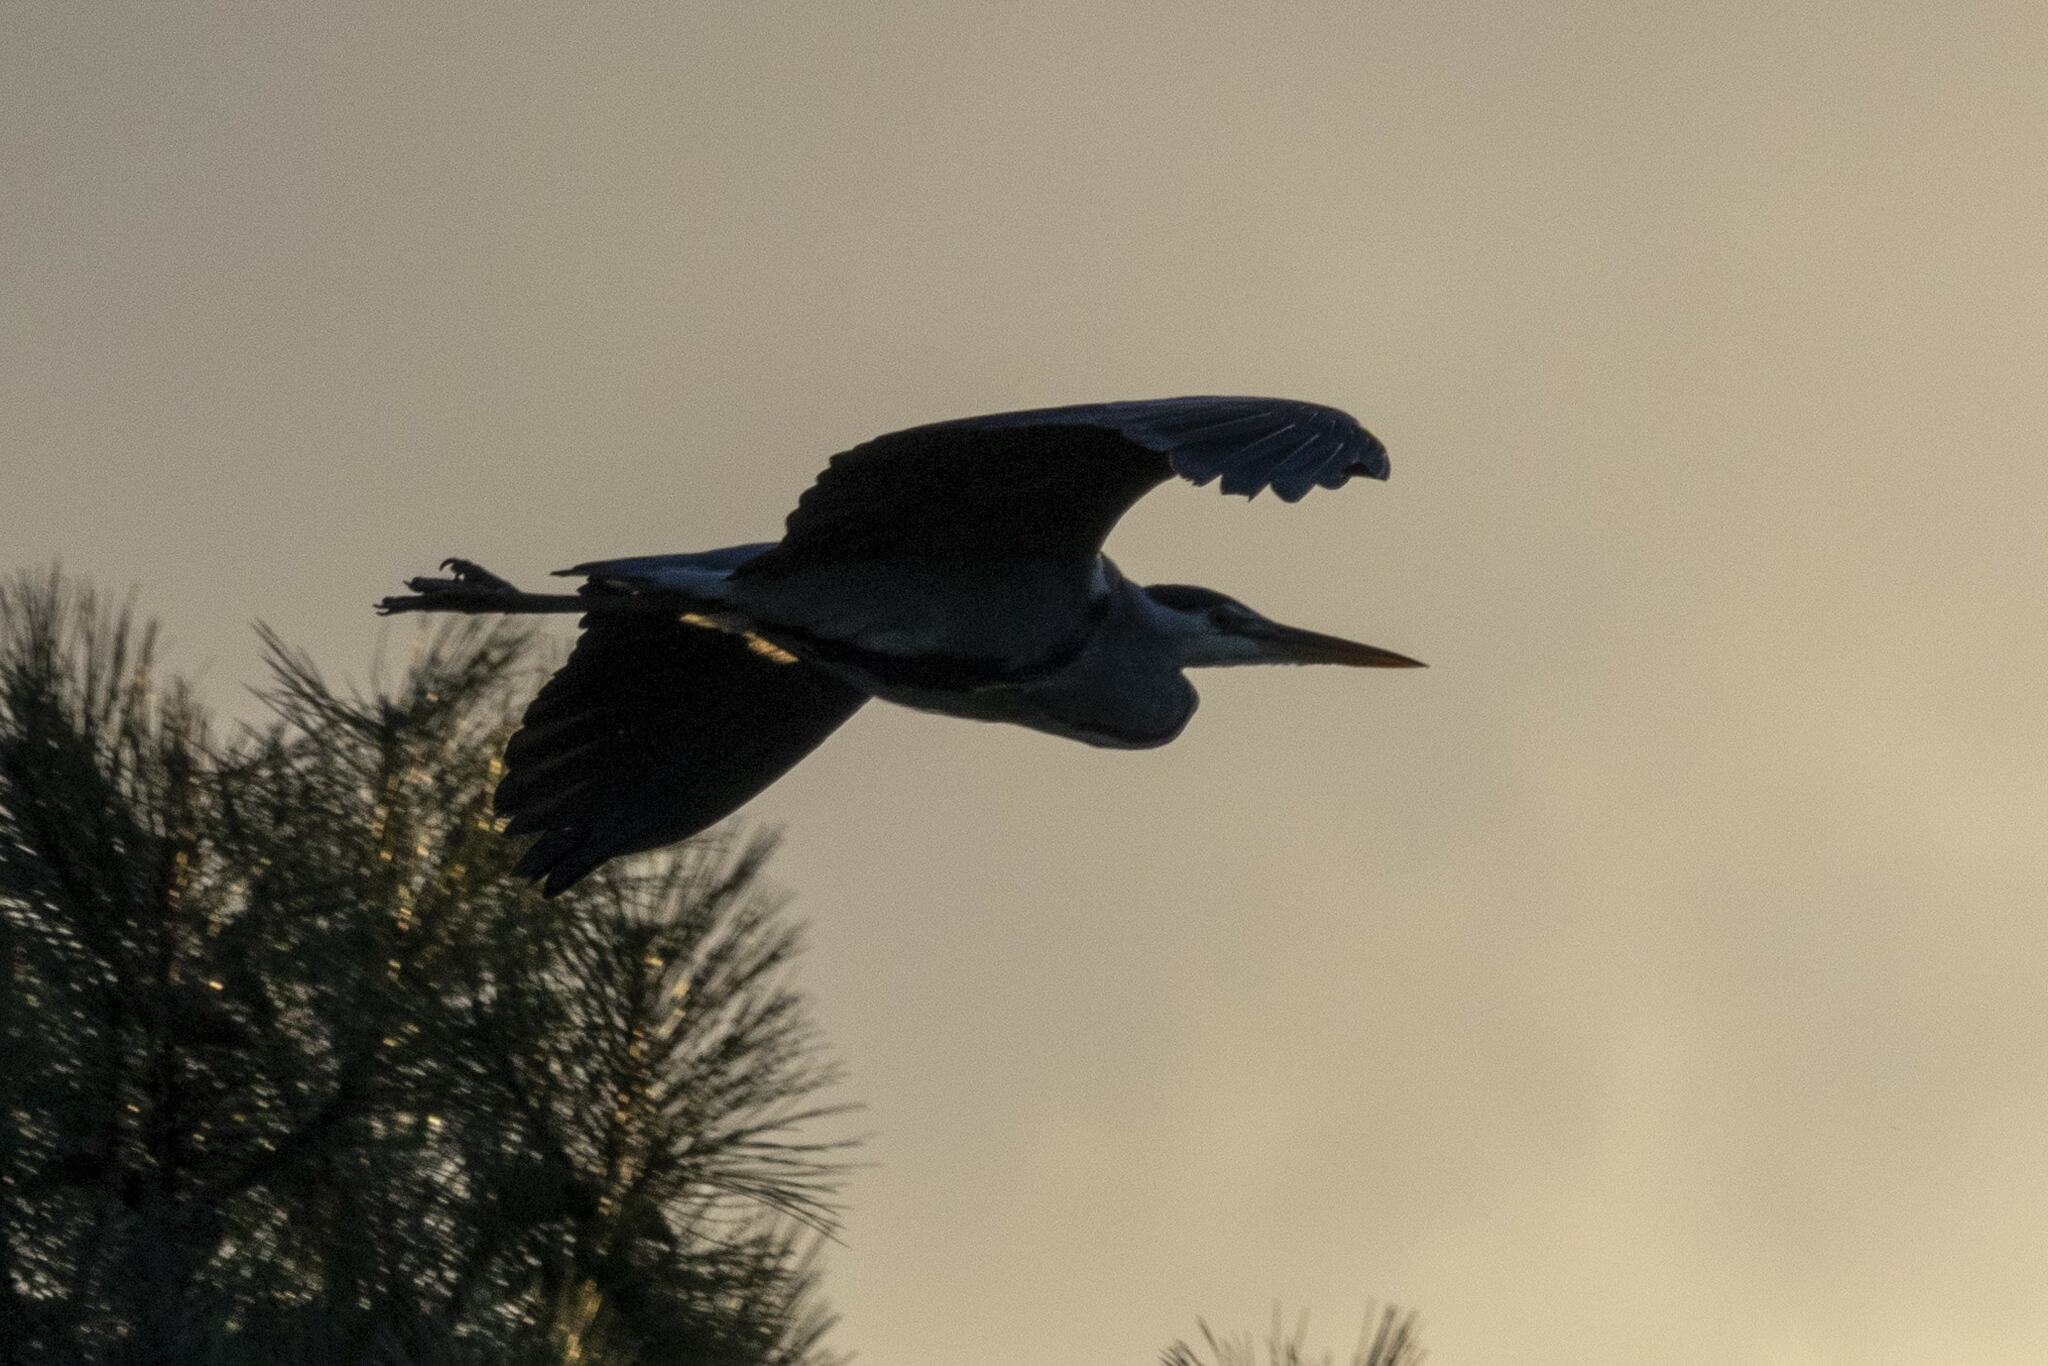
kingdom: Animalia
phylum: Chordata
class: Aves
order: Pelecaniformes
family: Ardeidae
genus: Ardea
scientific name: Ardea cinerea
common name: Grey heron
